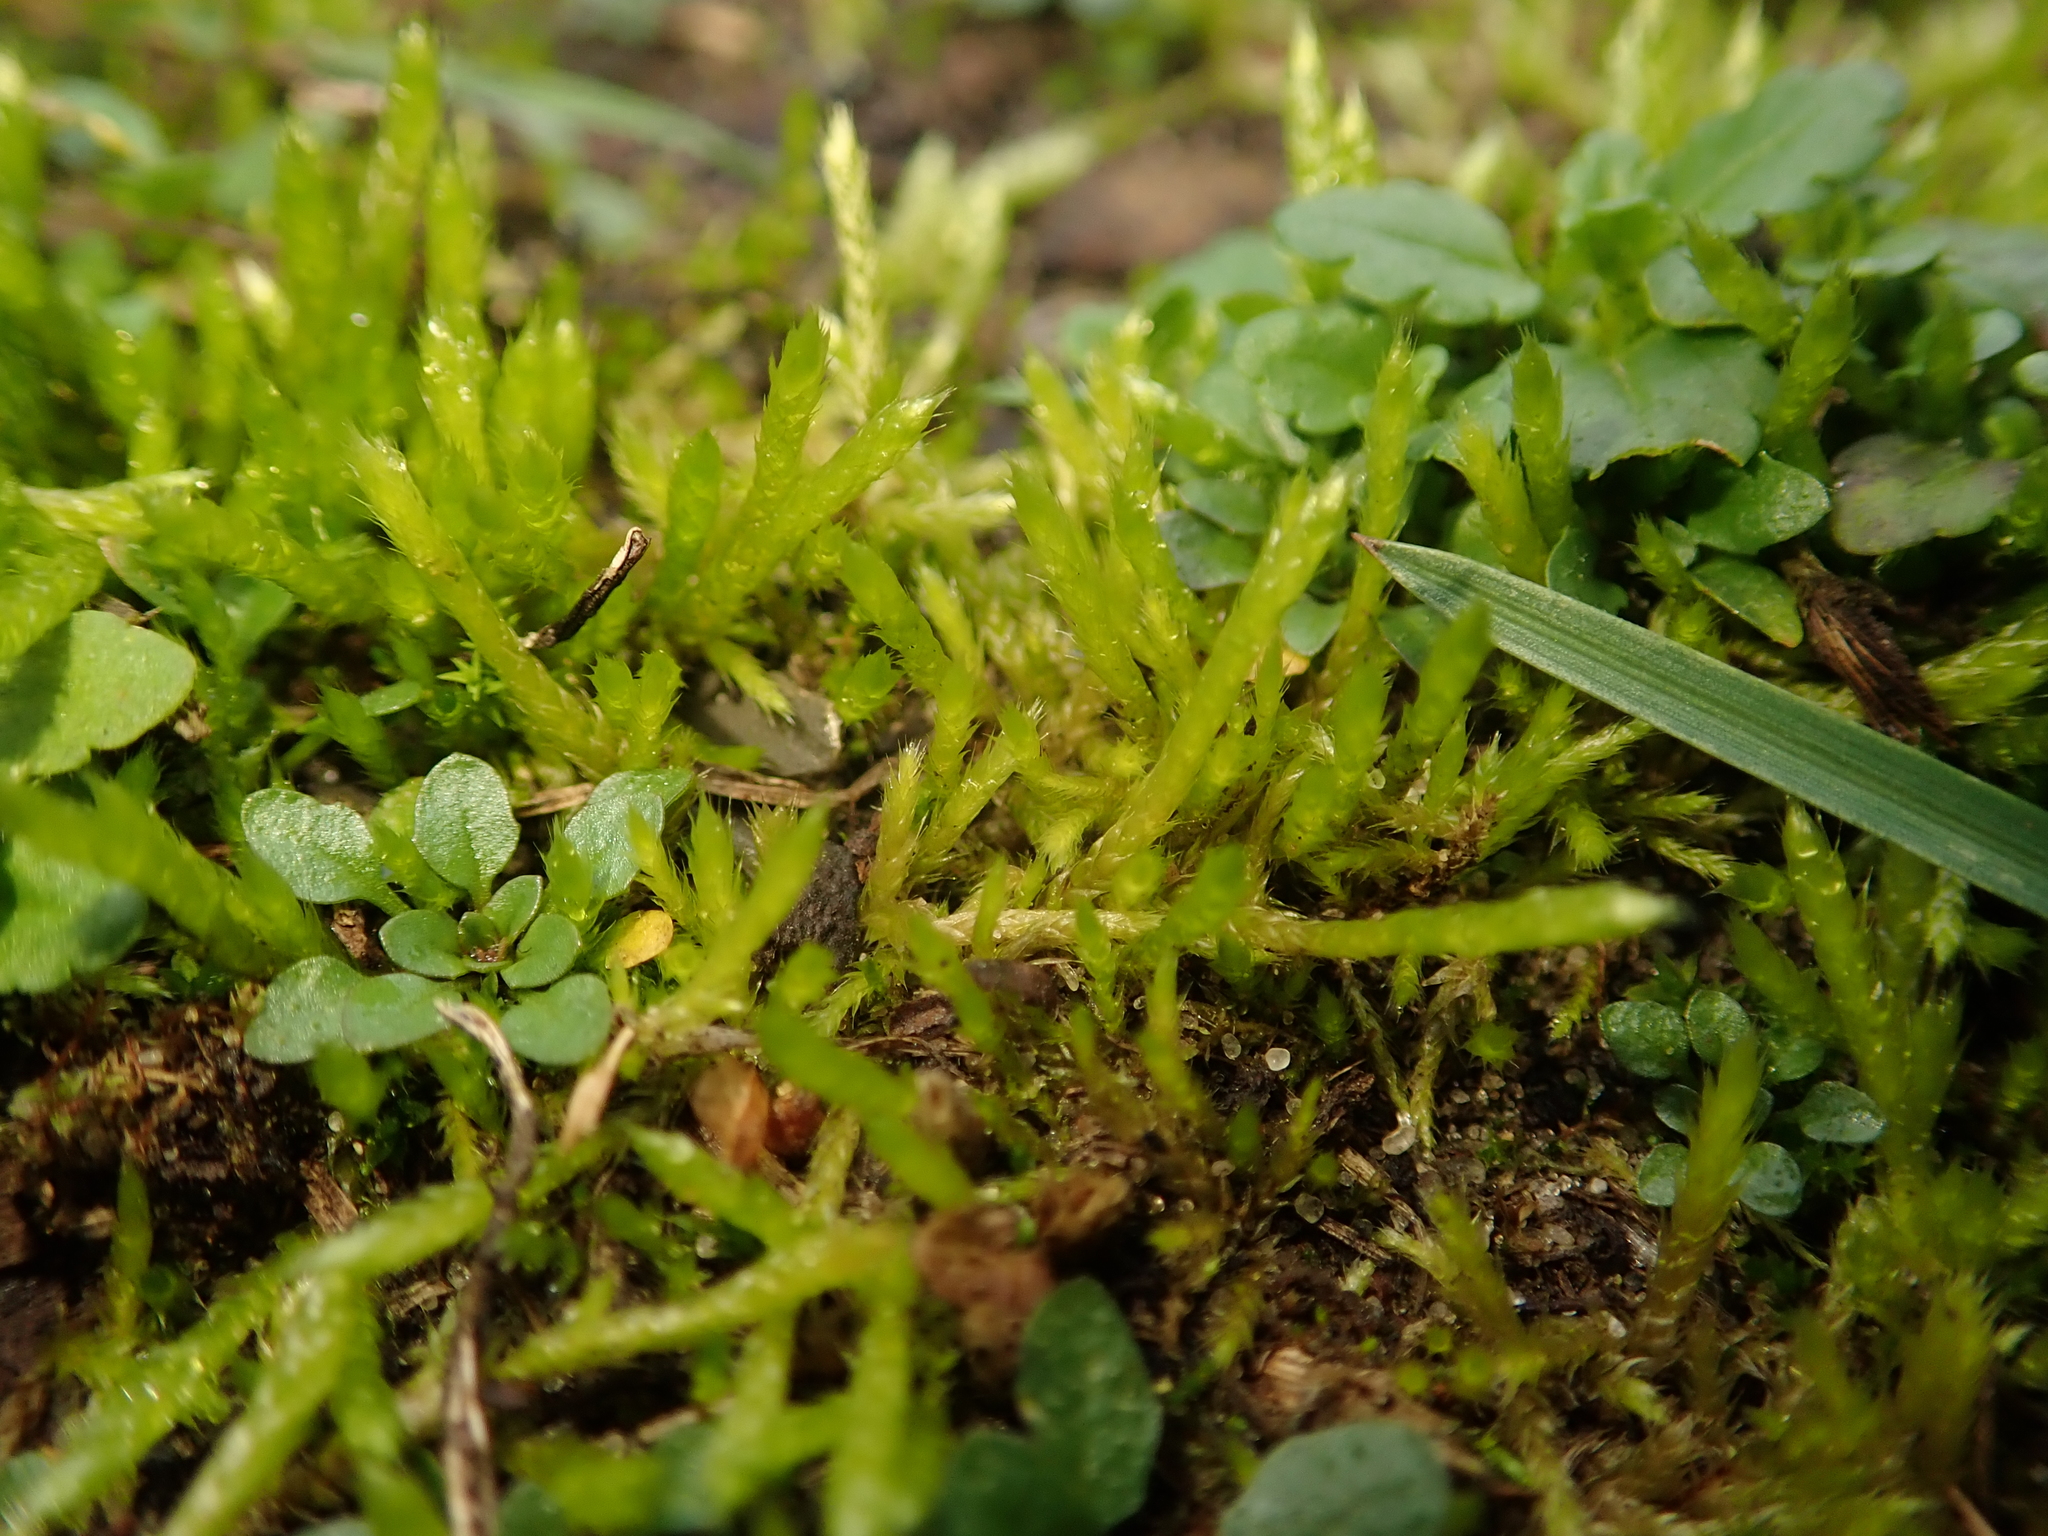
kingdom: Plantae
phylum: Bryophyta
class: Bryopsida
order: Hypnales
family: Brachytheciaceae
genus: Brachythecium
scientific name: Brachythecium albicans
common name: Whitish ragged moss
